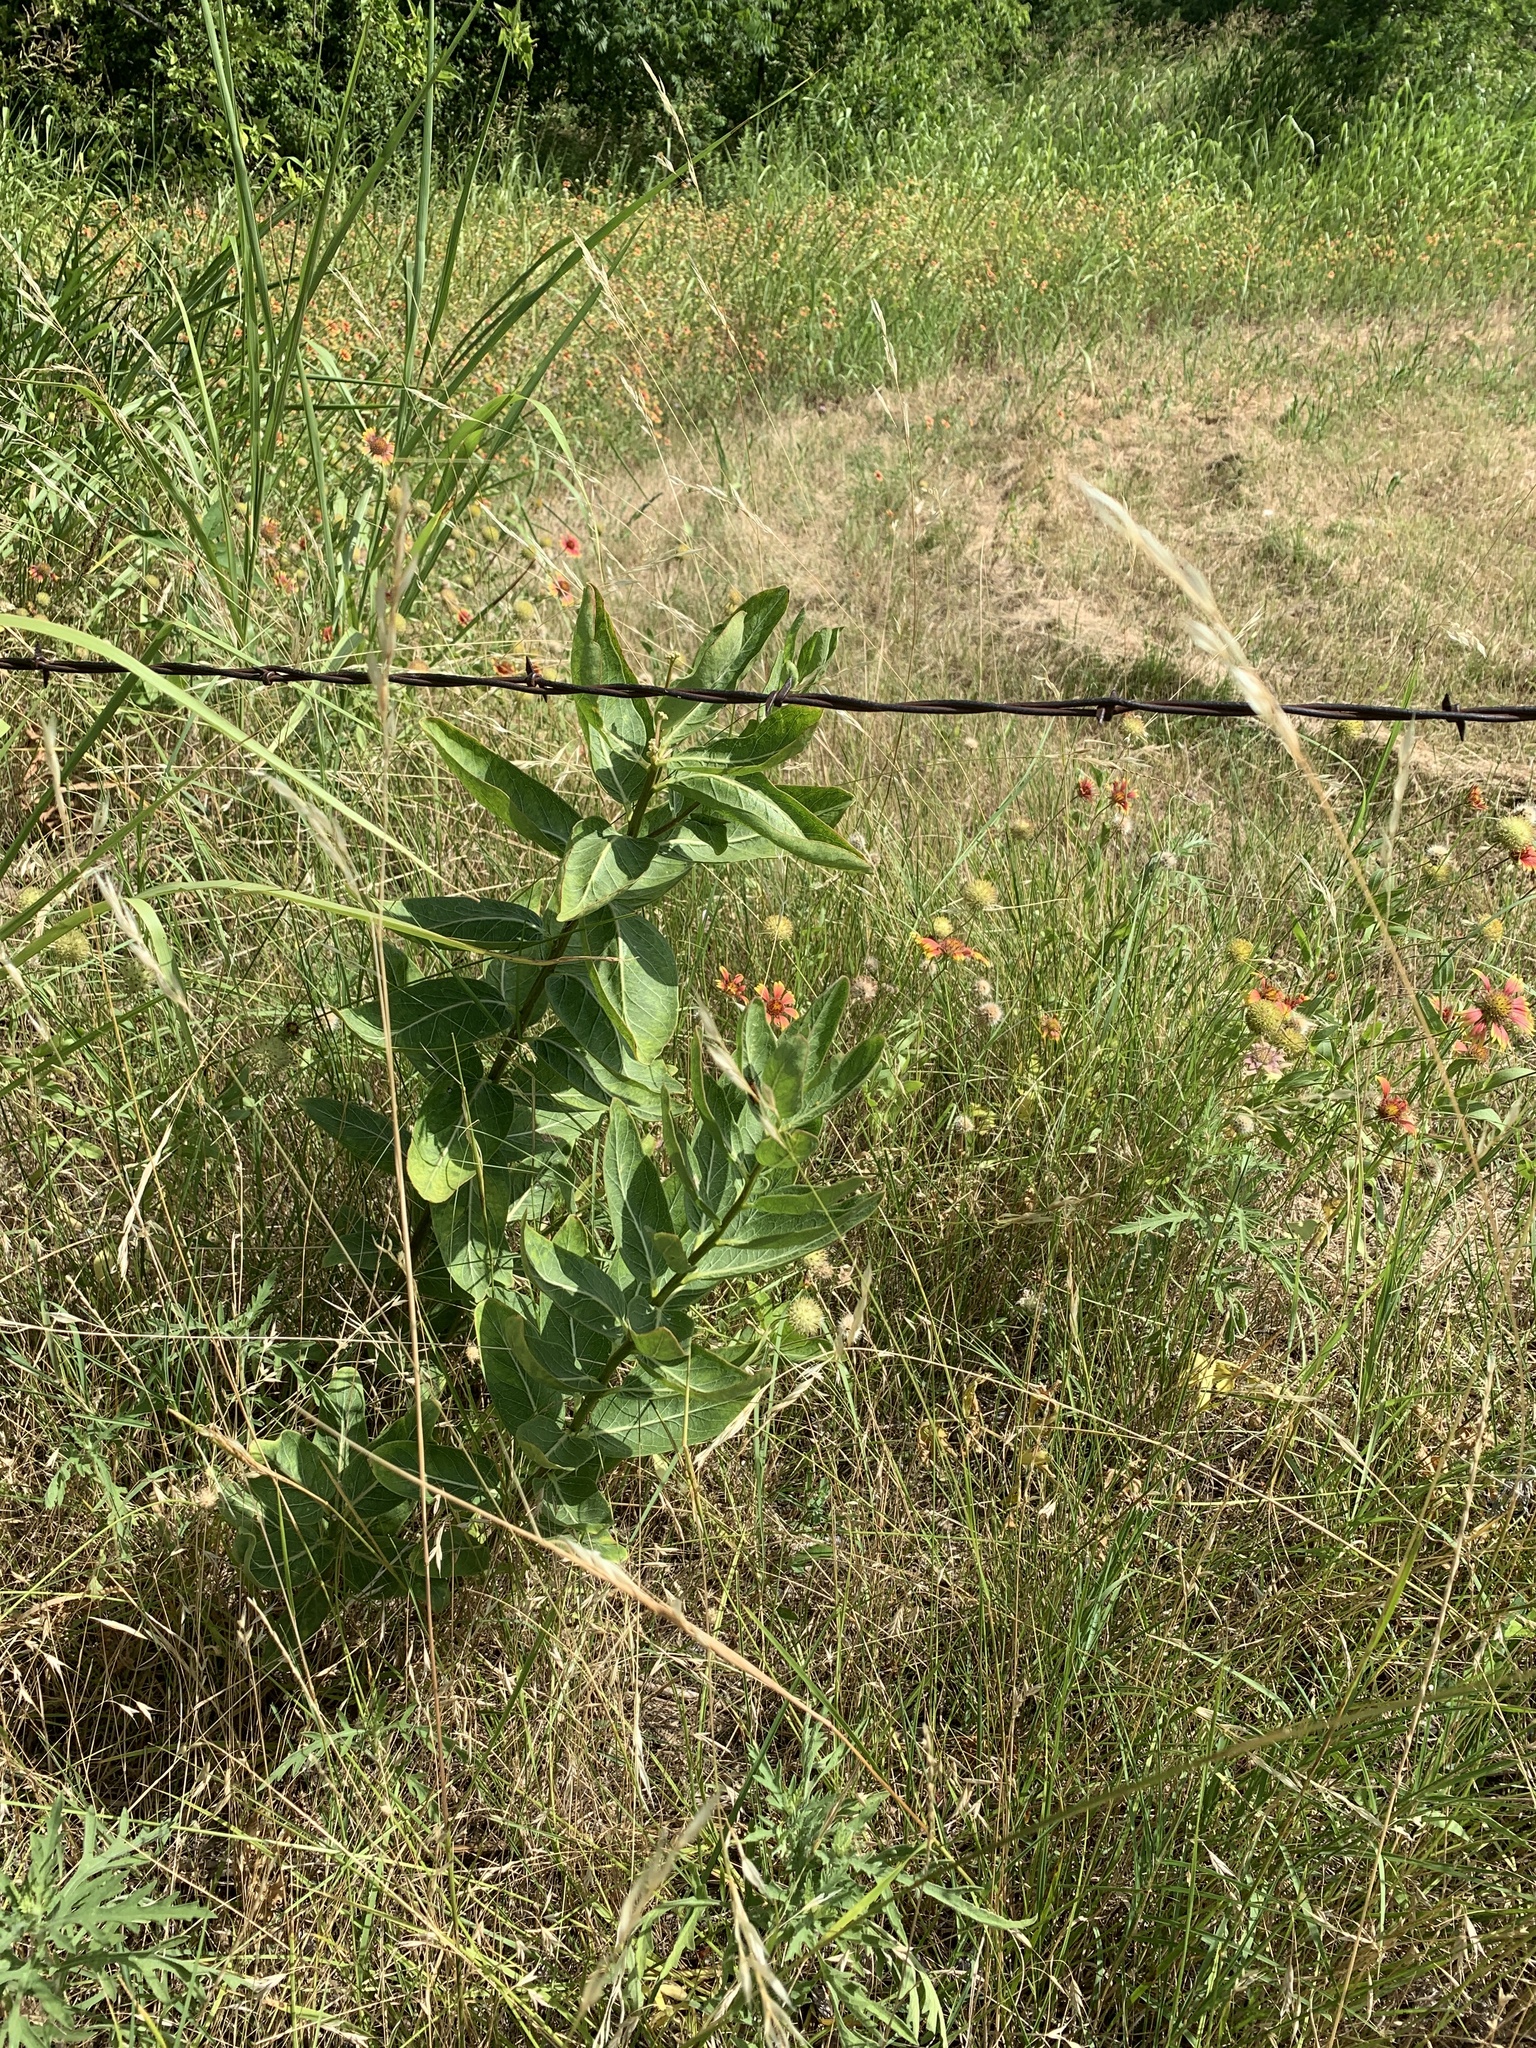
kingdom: Plantae
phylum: Tracheophyta
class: Magnoliopsida
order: Gentianales
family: Apocynaceae
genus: Asclepias
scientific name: Asclepias viridis
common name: Antelope-horns
